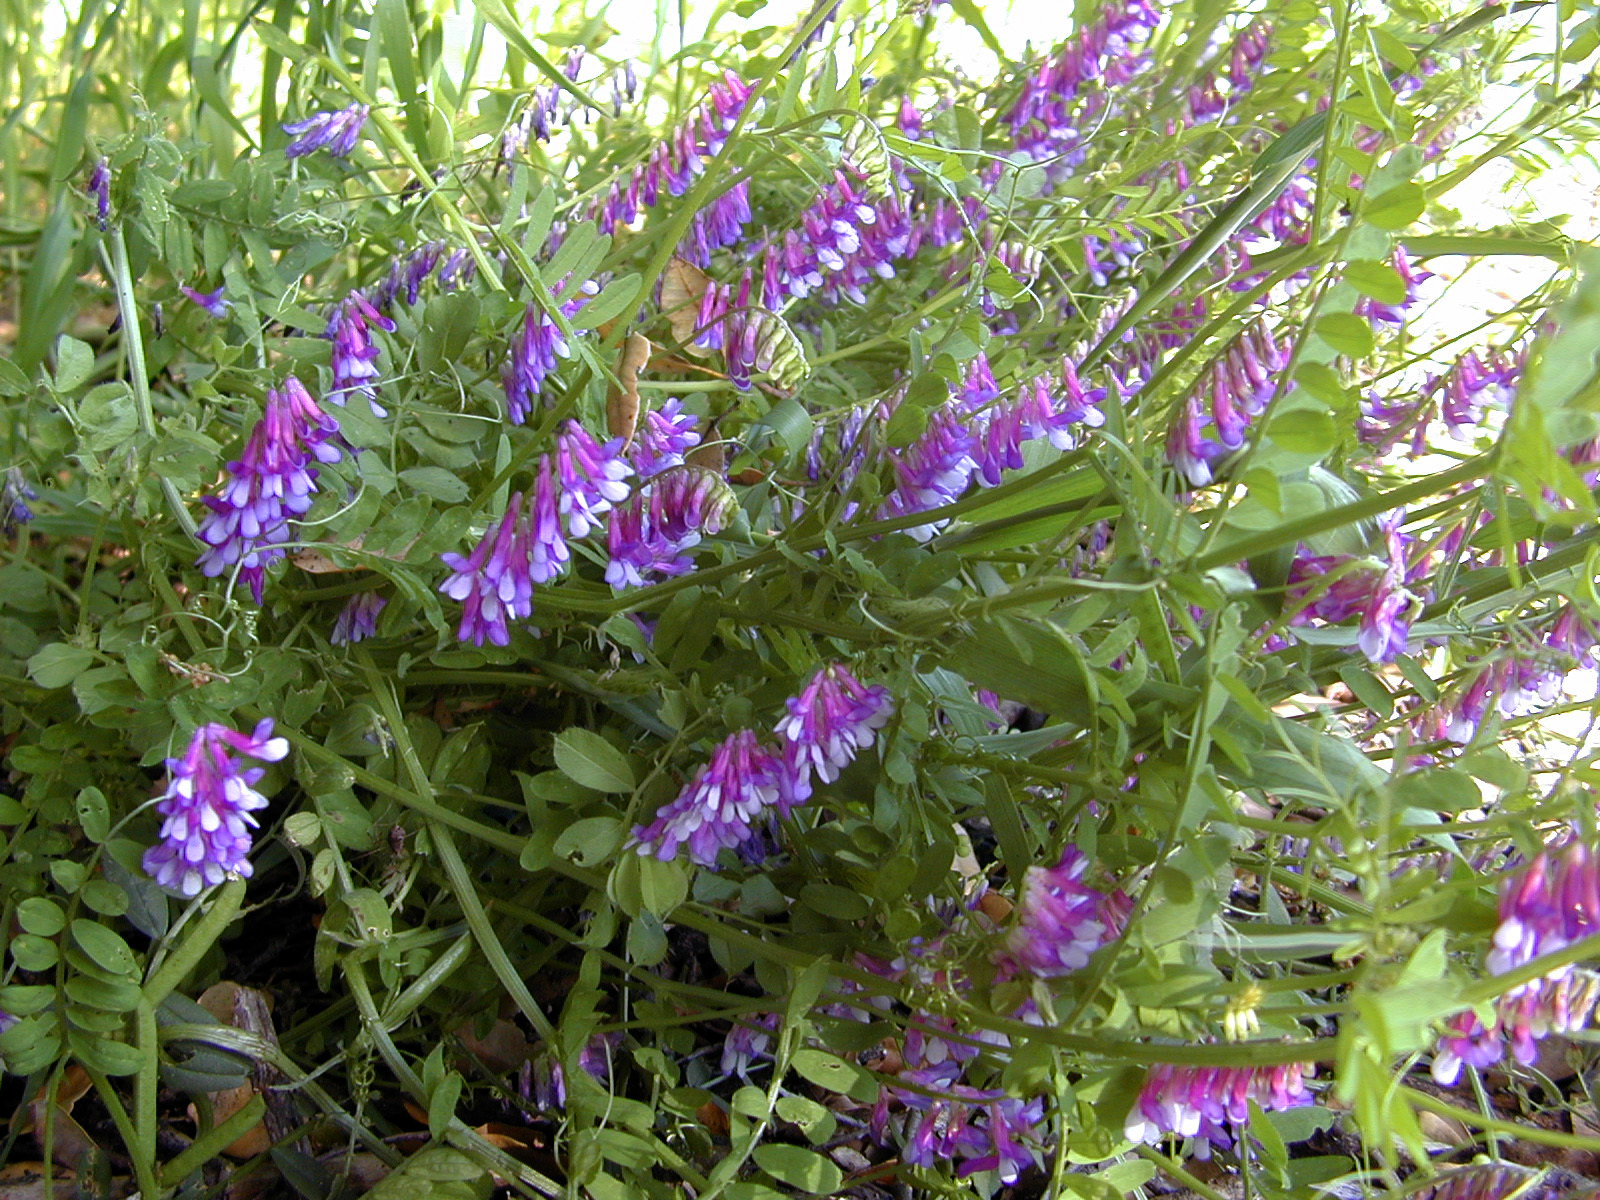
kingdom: Plantae
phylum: Tracheophyta
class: Magnoliopsida
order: Fabales
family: Fabaceae
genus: Vicia
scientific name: Vicia villosa
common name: Fodder vetch
